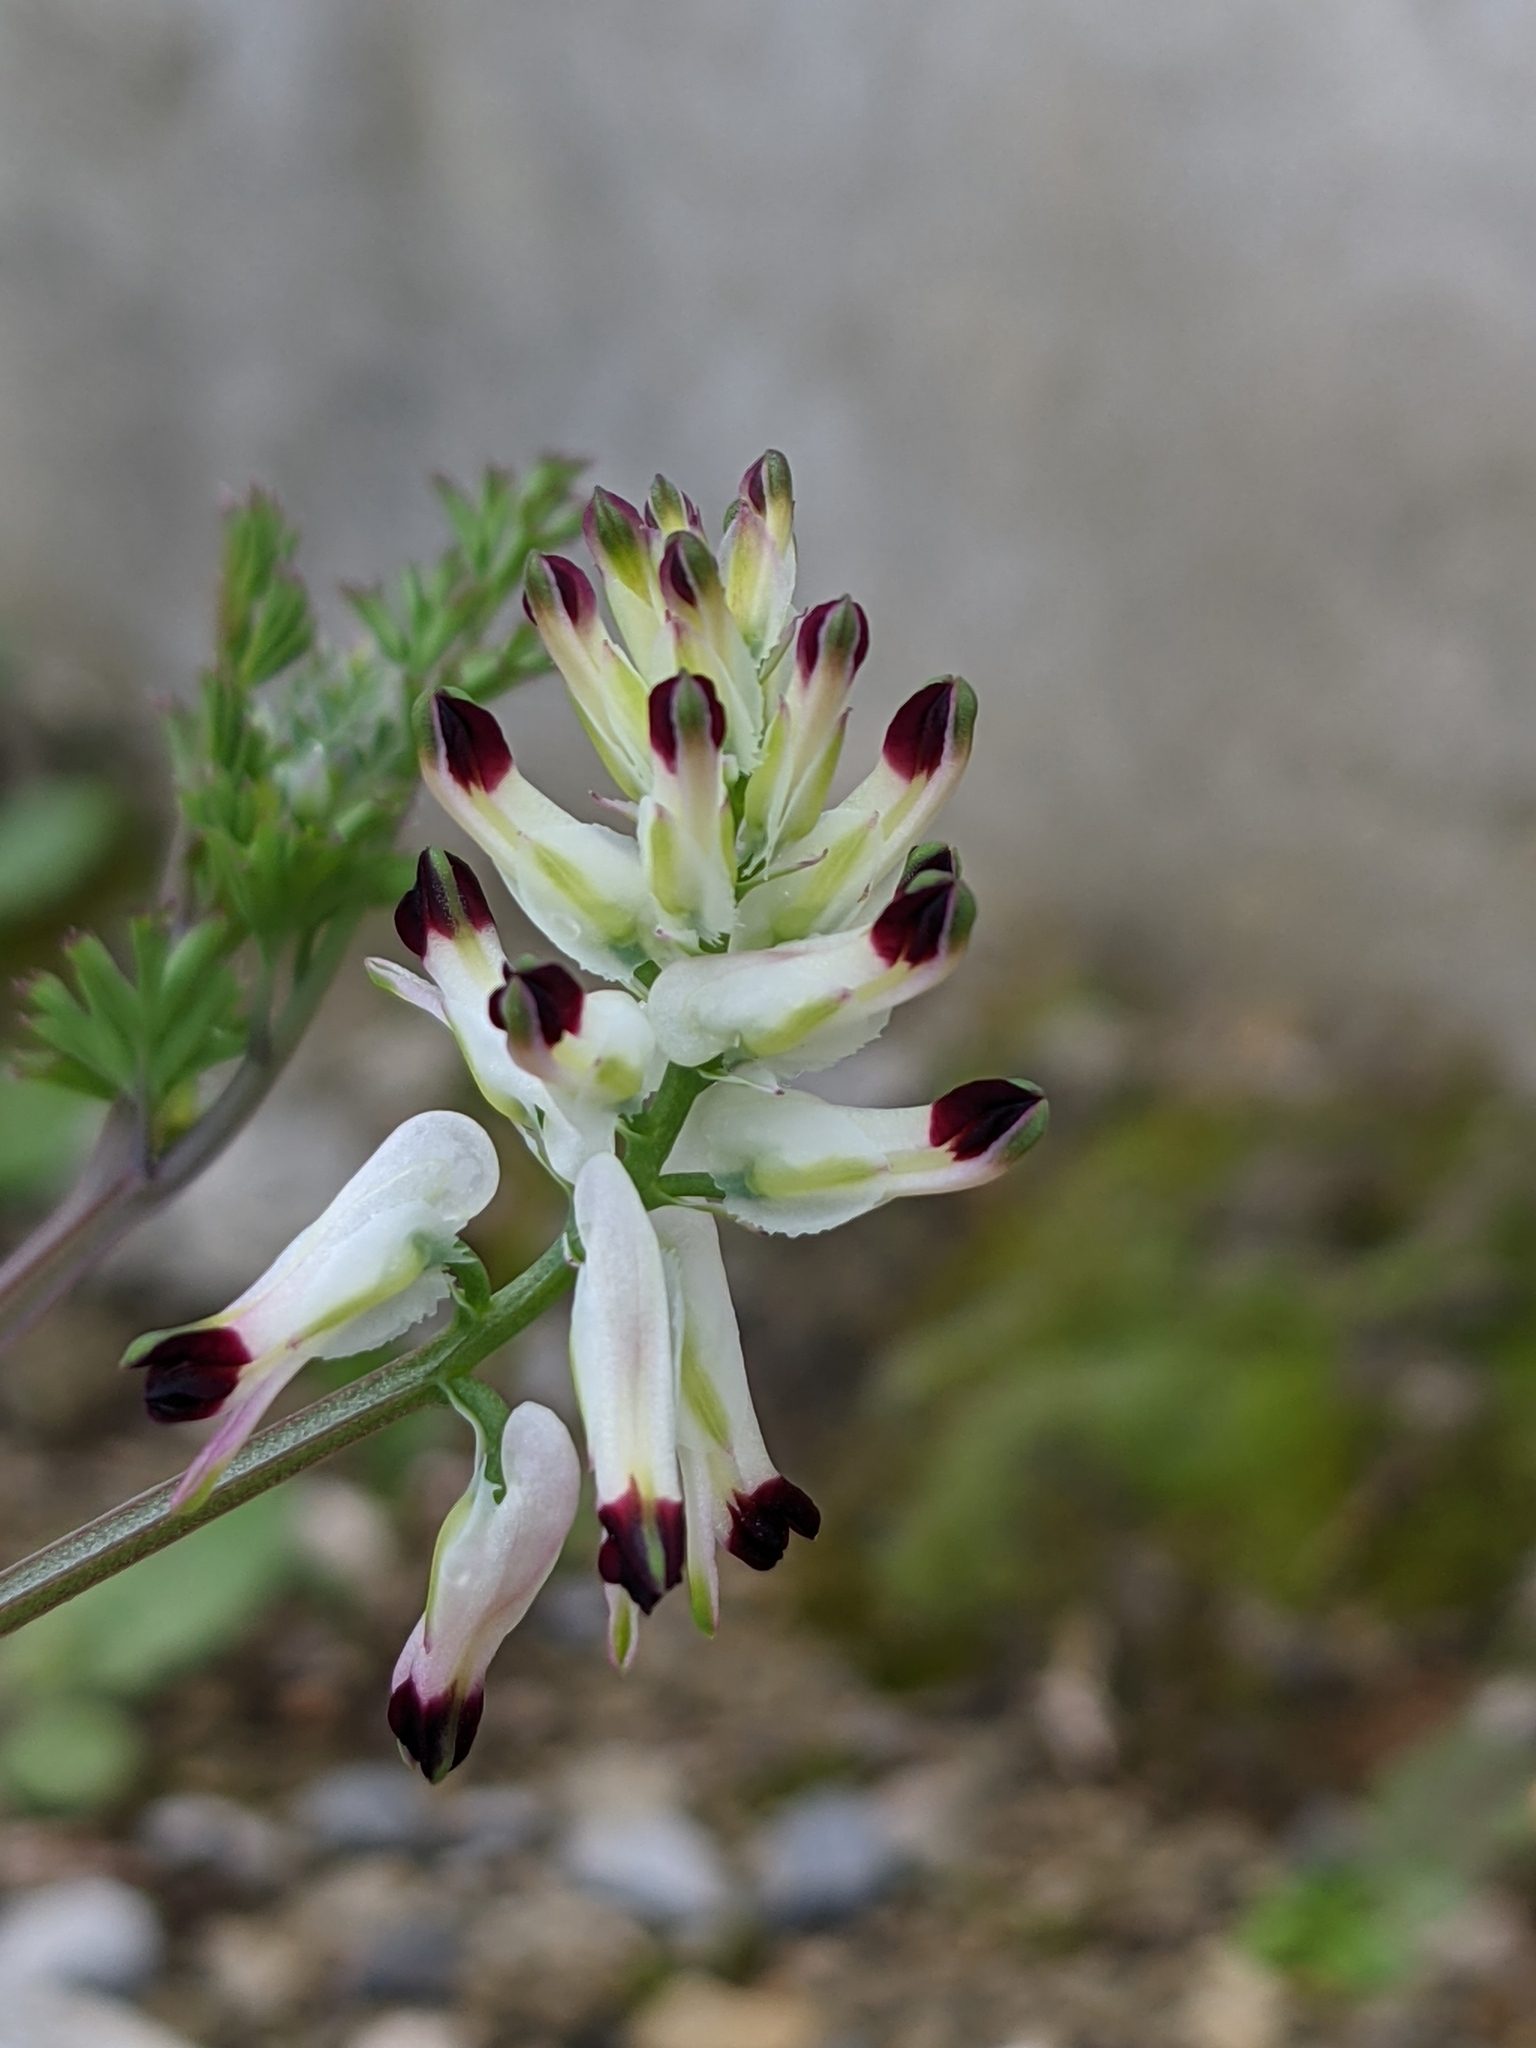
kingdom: Plantae
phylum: Tracheophyta
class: Magnoliopsida
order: Ranunculales
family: Papaveraceae
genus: Fumaria
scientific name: Fumaria capreolata
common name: White ramping-fumitory
